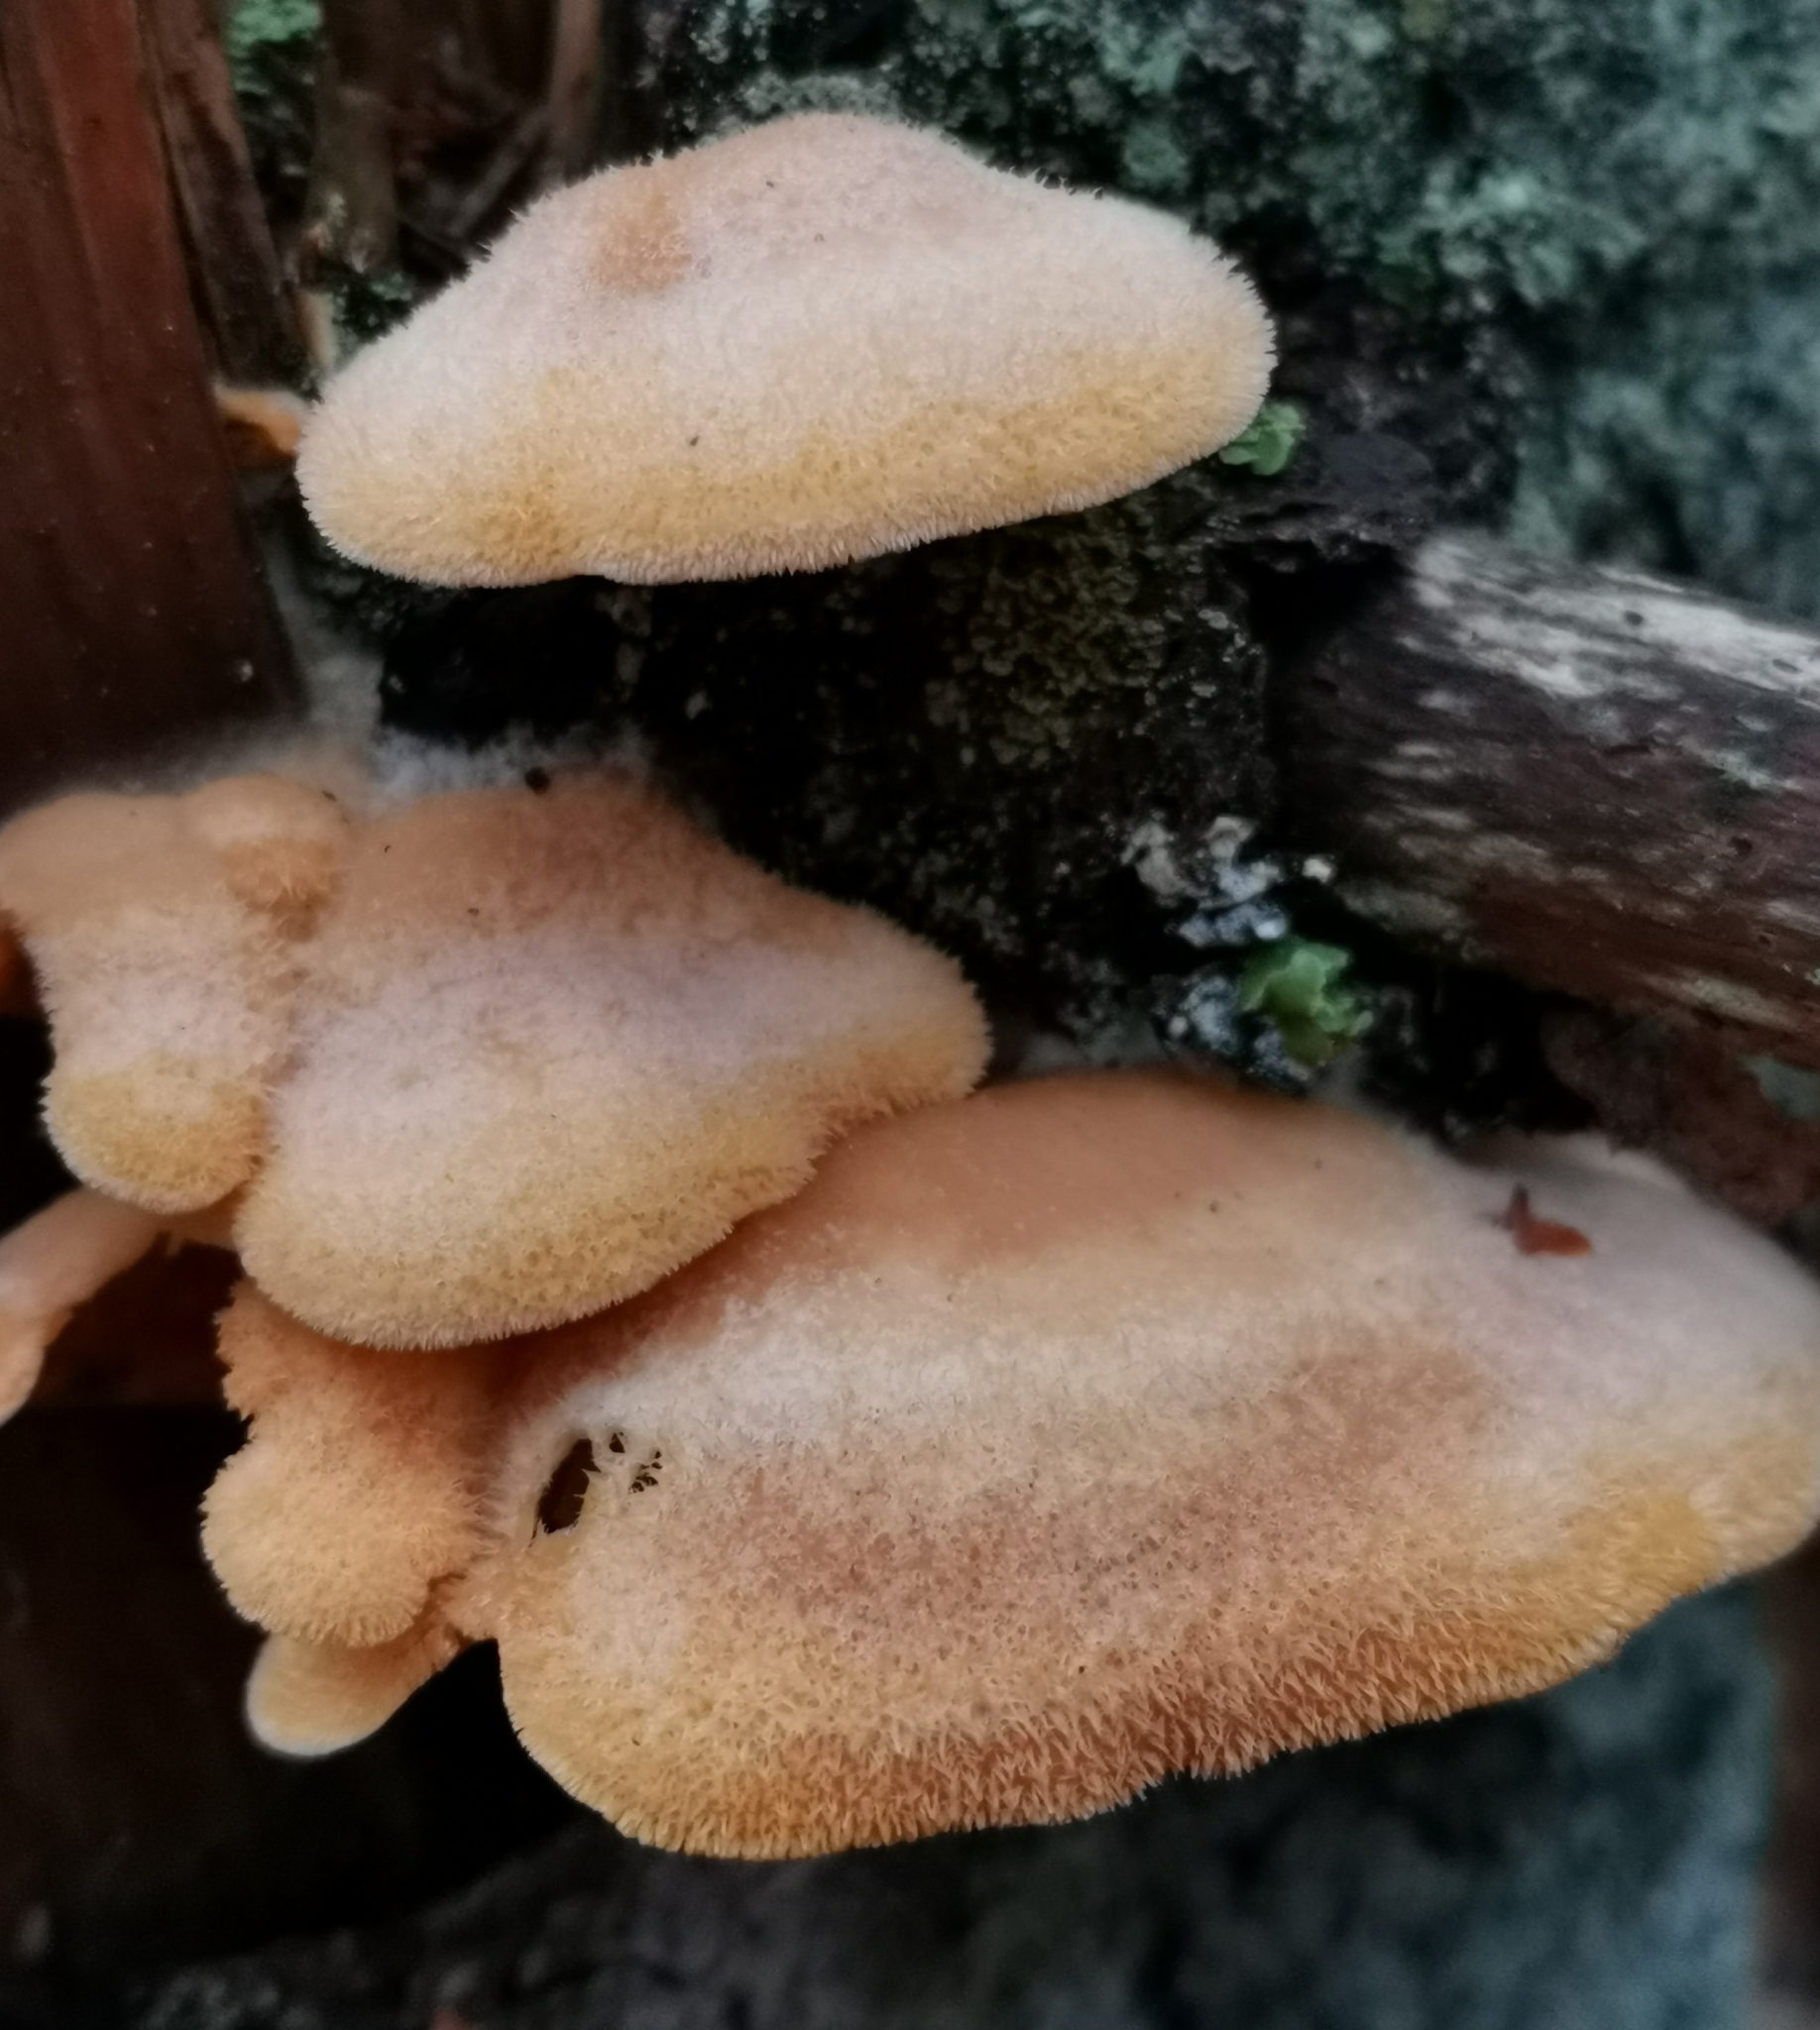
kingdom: Fungi
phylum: Basidiomycota
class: Agaricomycetes
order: Agaricales
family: Phyllotopsidaceae
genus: Phyllotopsis
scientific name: Phyllotopsis nidulans
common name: Orange mock oyster
